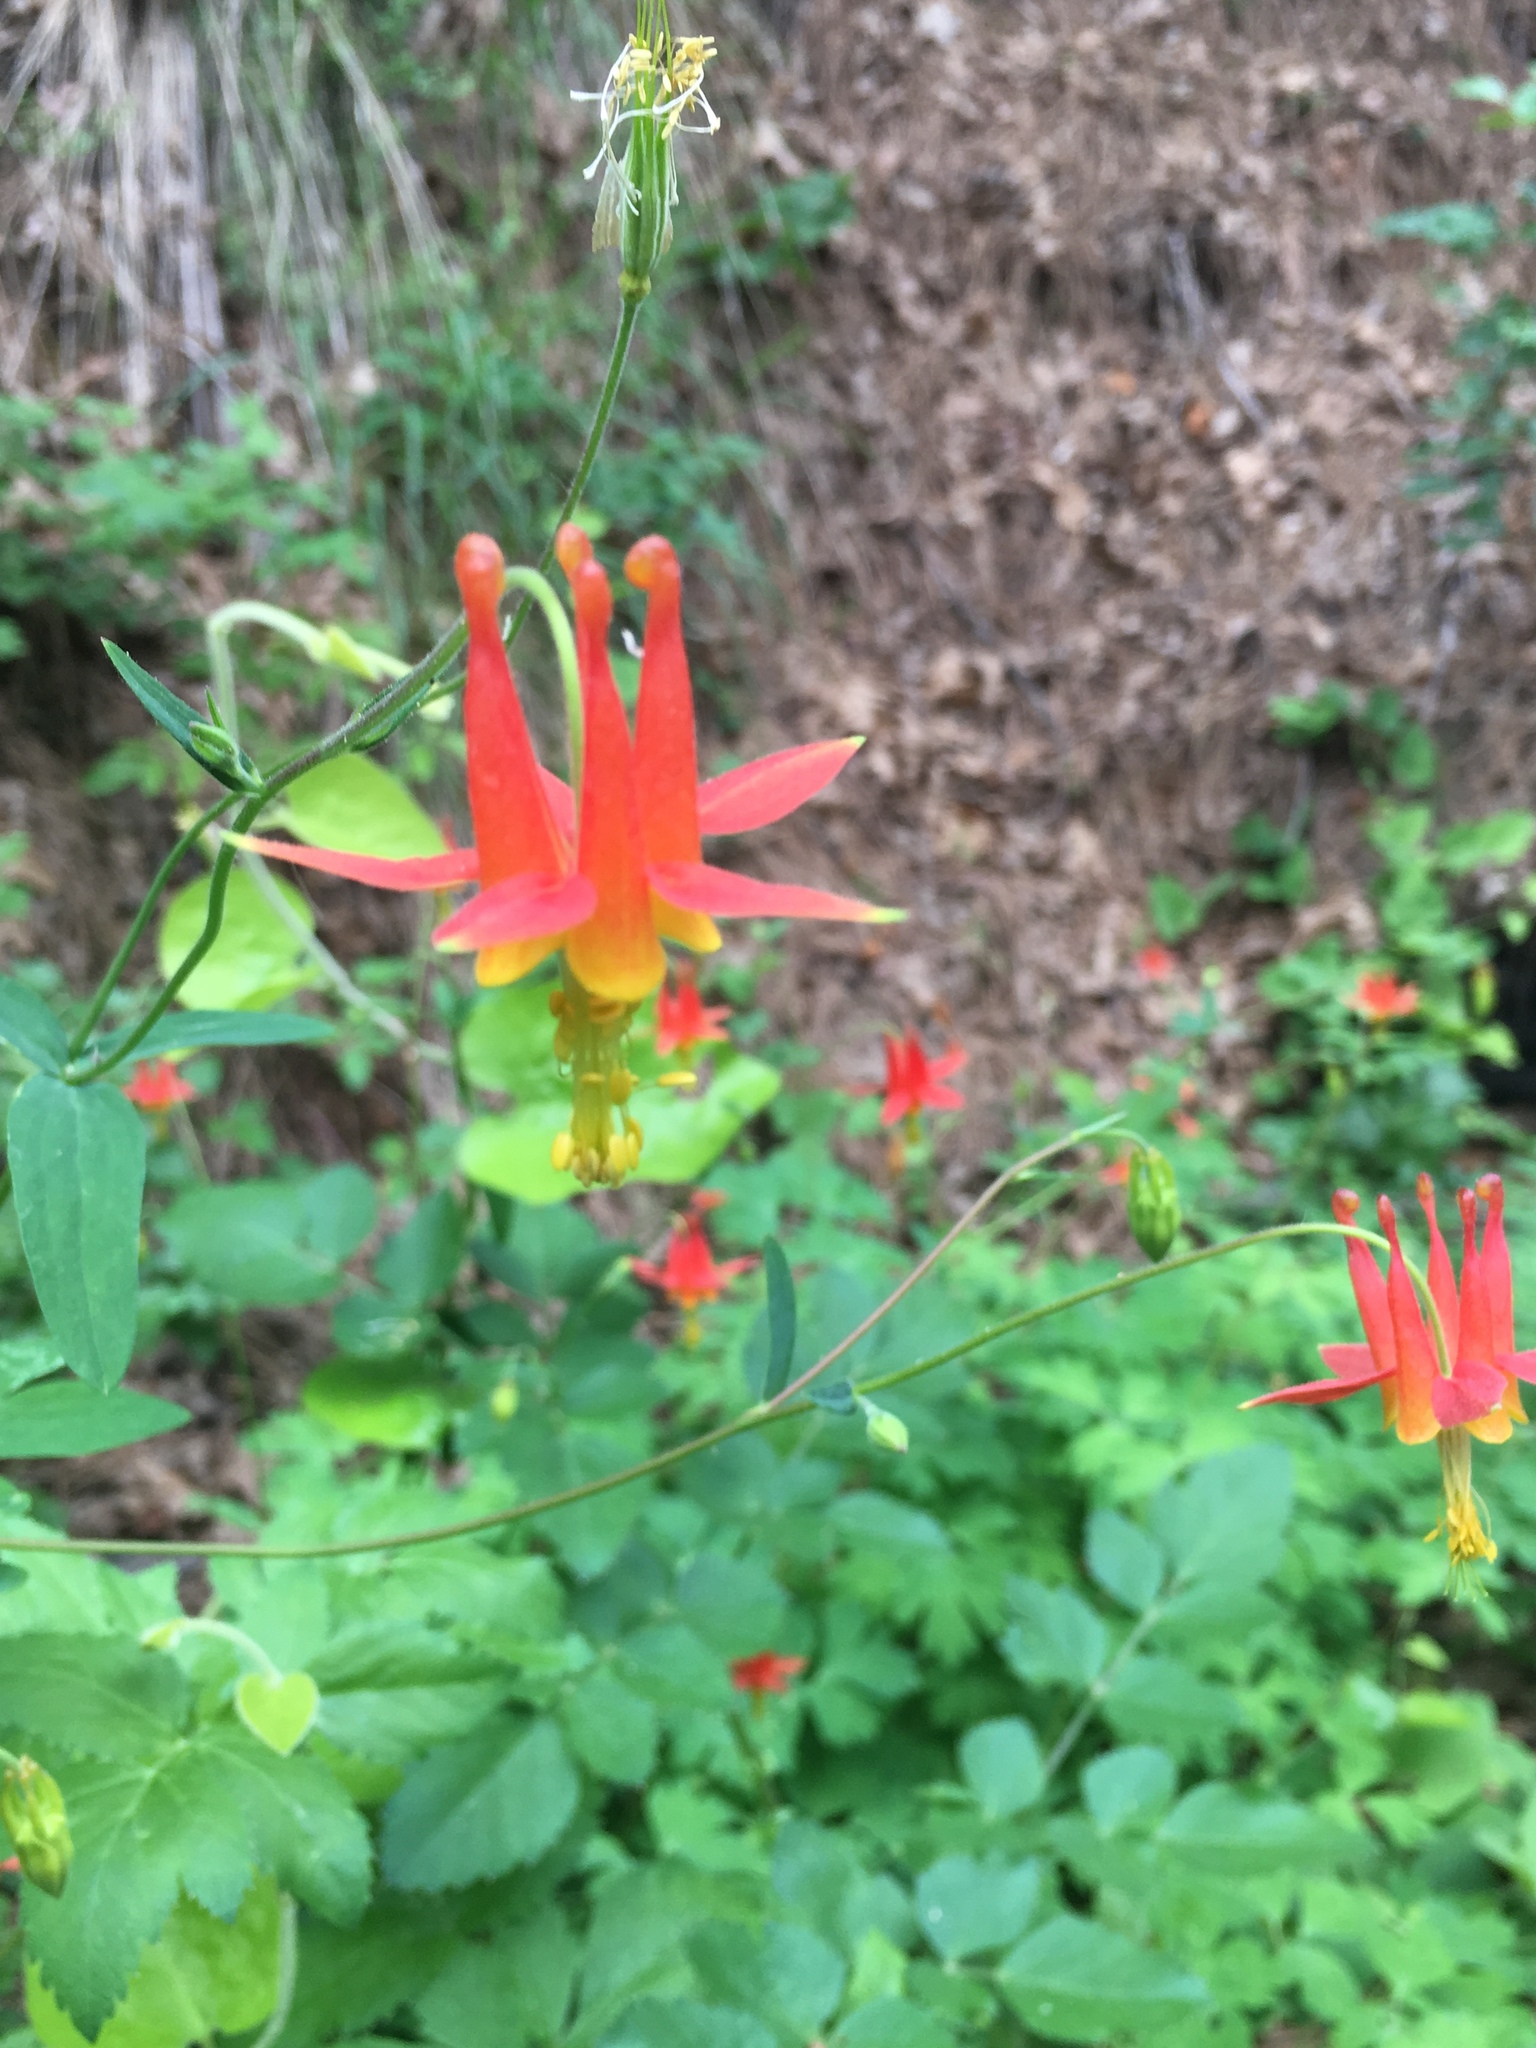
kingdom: Plantae
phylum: Tracheophyta
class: Magnoliopsida
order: Ranunculales
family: Ranunculaceae
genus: Aquilegia
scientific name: Aquilegia formosa
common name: Sitka columbine
